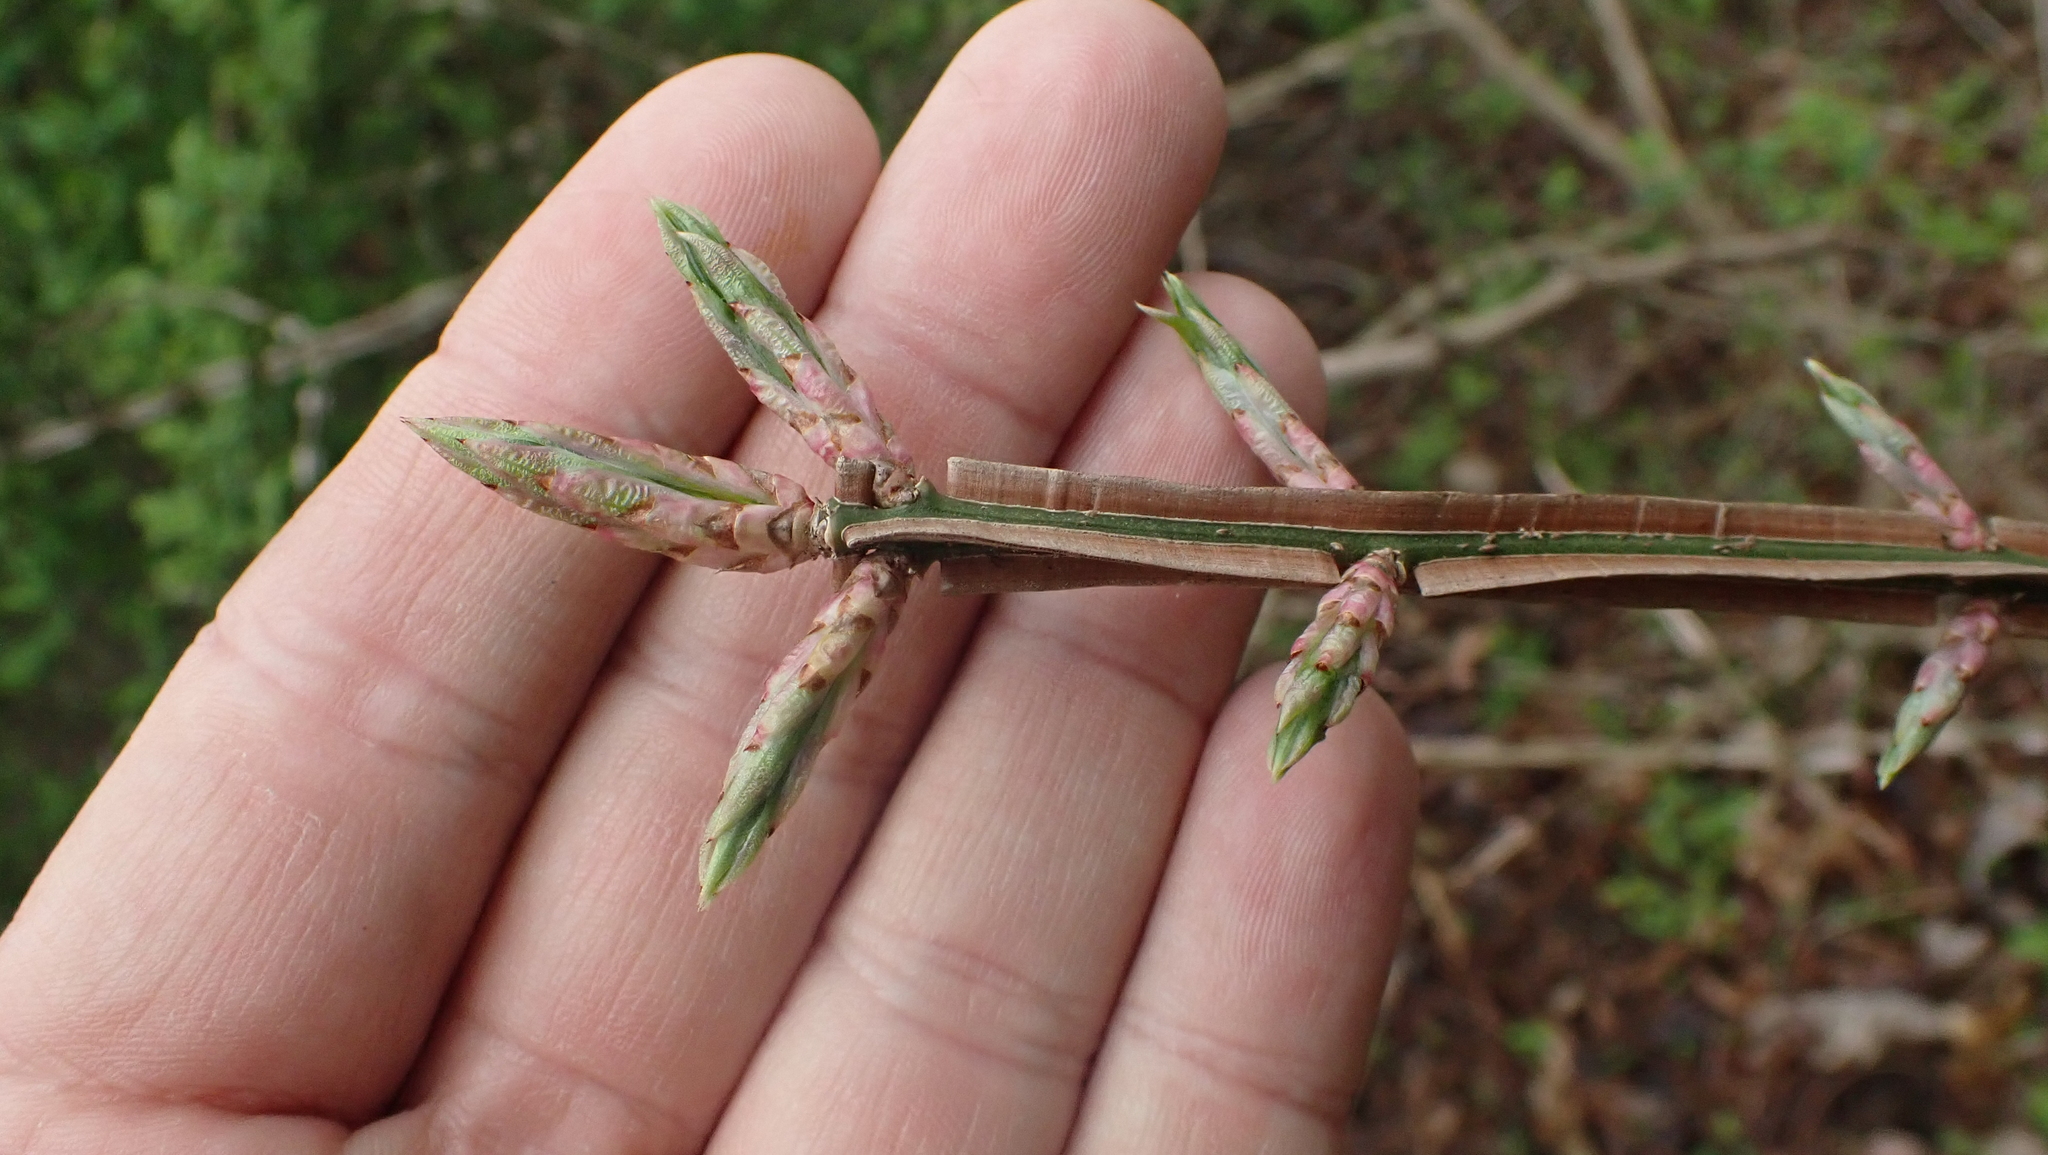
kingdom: Plantae
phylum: Tracheophyta
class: Magnoliopsida
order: Celastrales
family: Celastraceae
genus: Euonymus
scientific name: Euonymus alatus
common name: Winged euonymus
